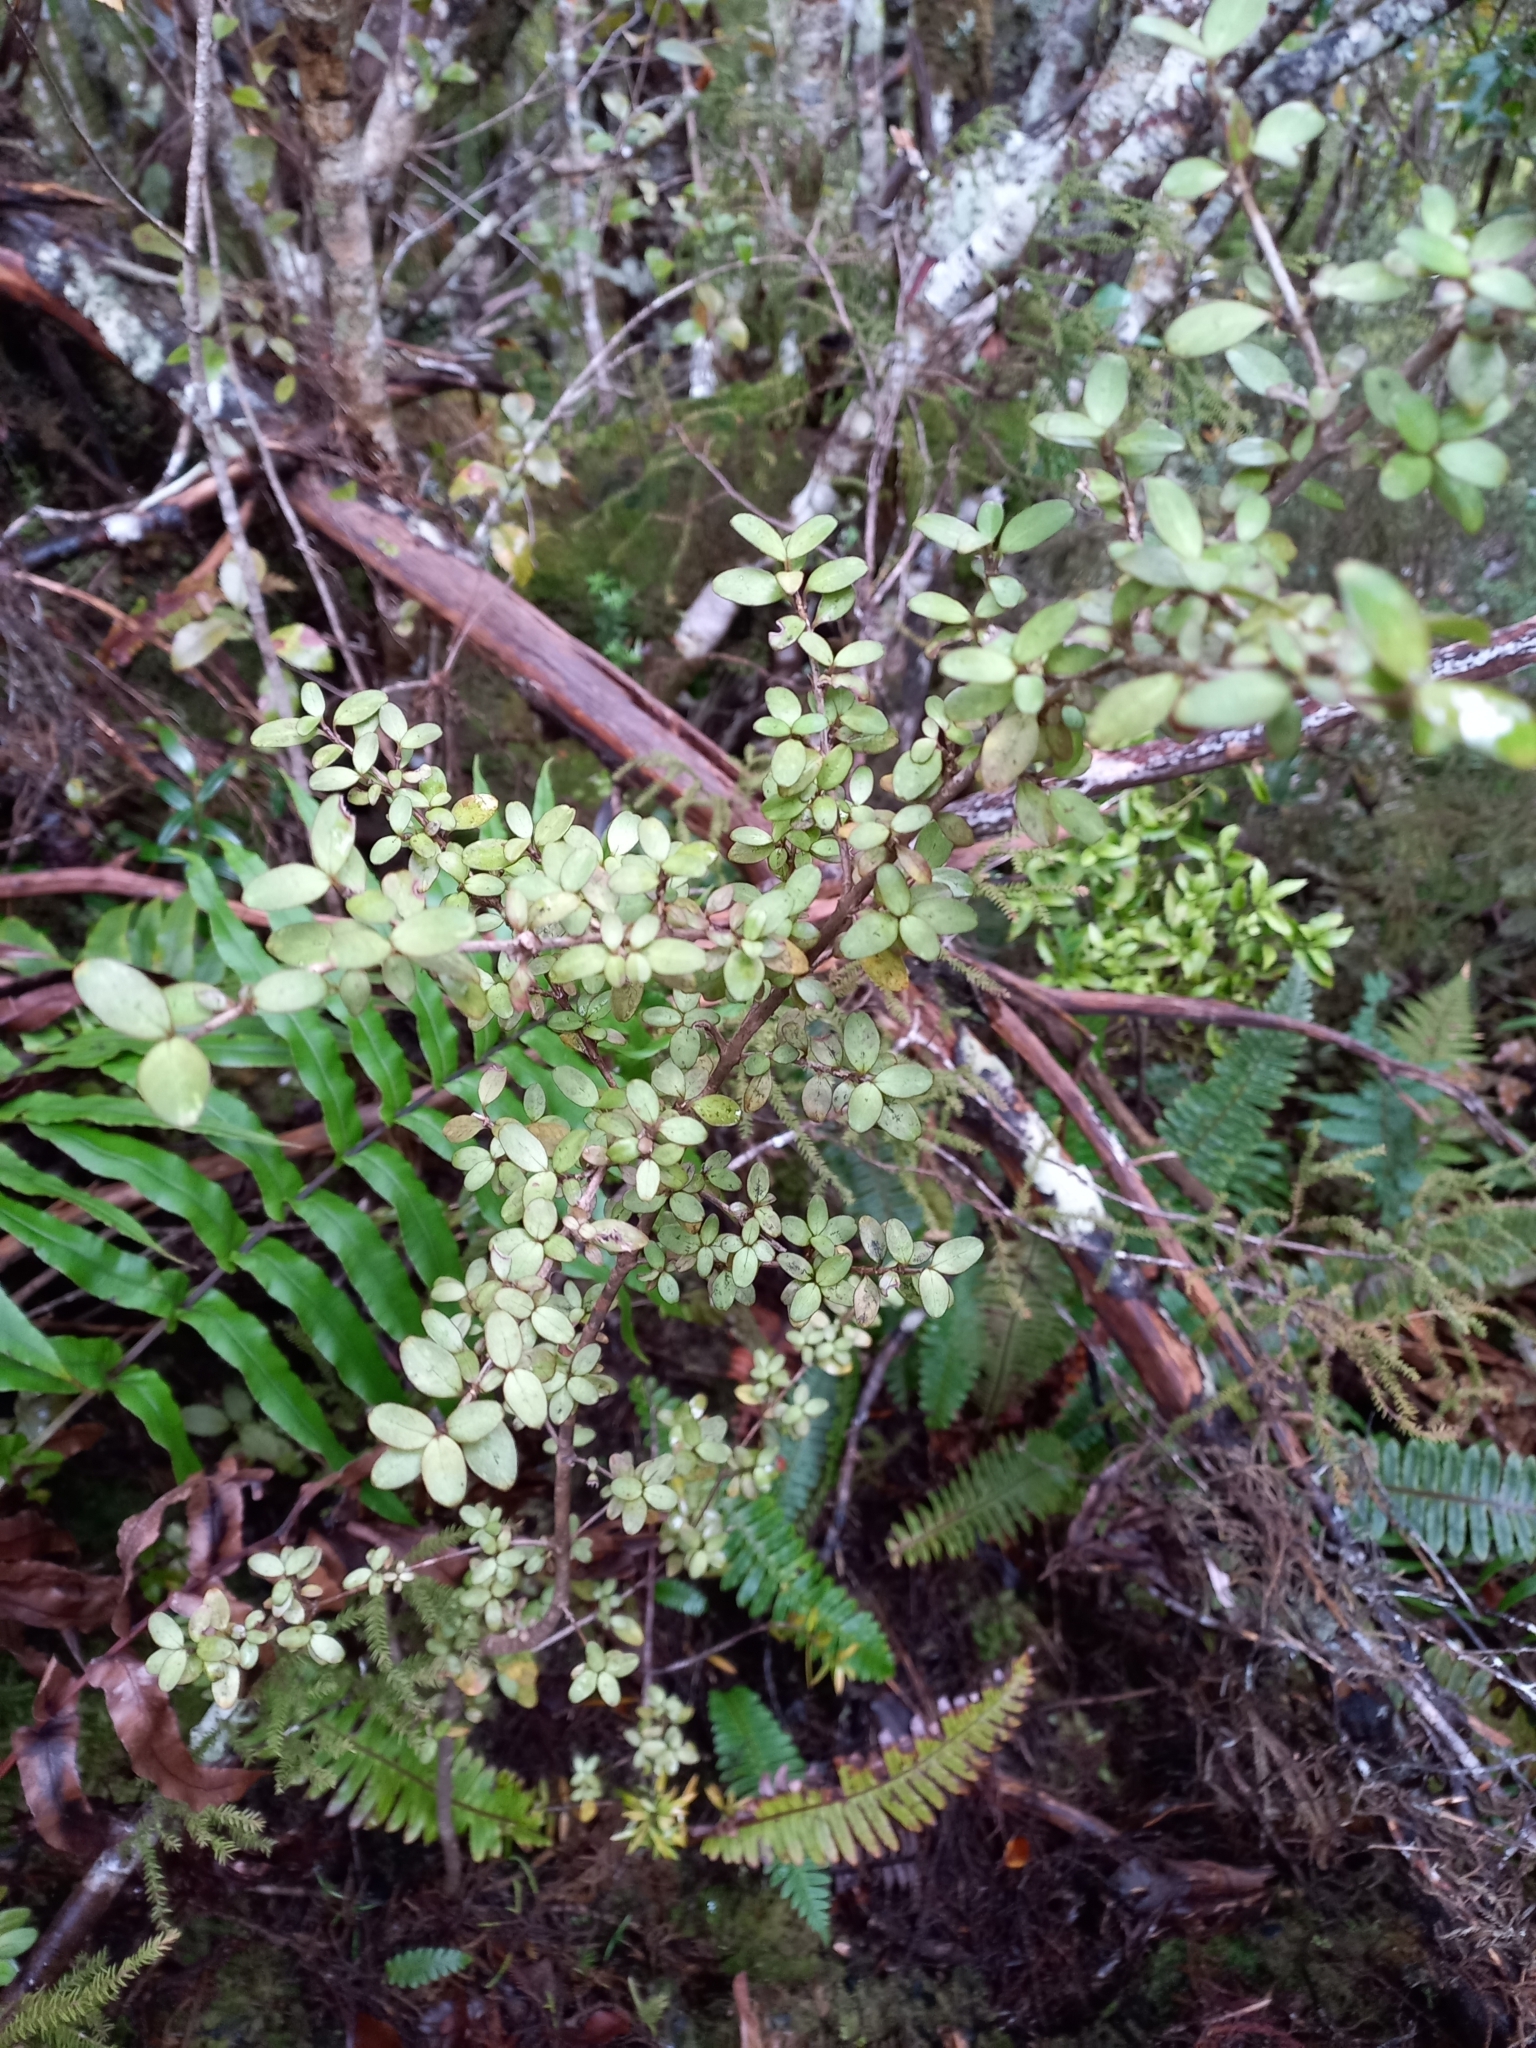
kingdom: Plantae
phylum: Tracheophyta
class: Magnoliopsida
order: Gentianales
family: Rubiaceae
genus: Coprosma
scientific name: Coprosma colensoi
